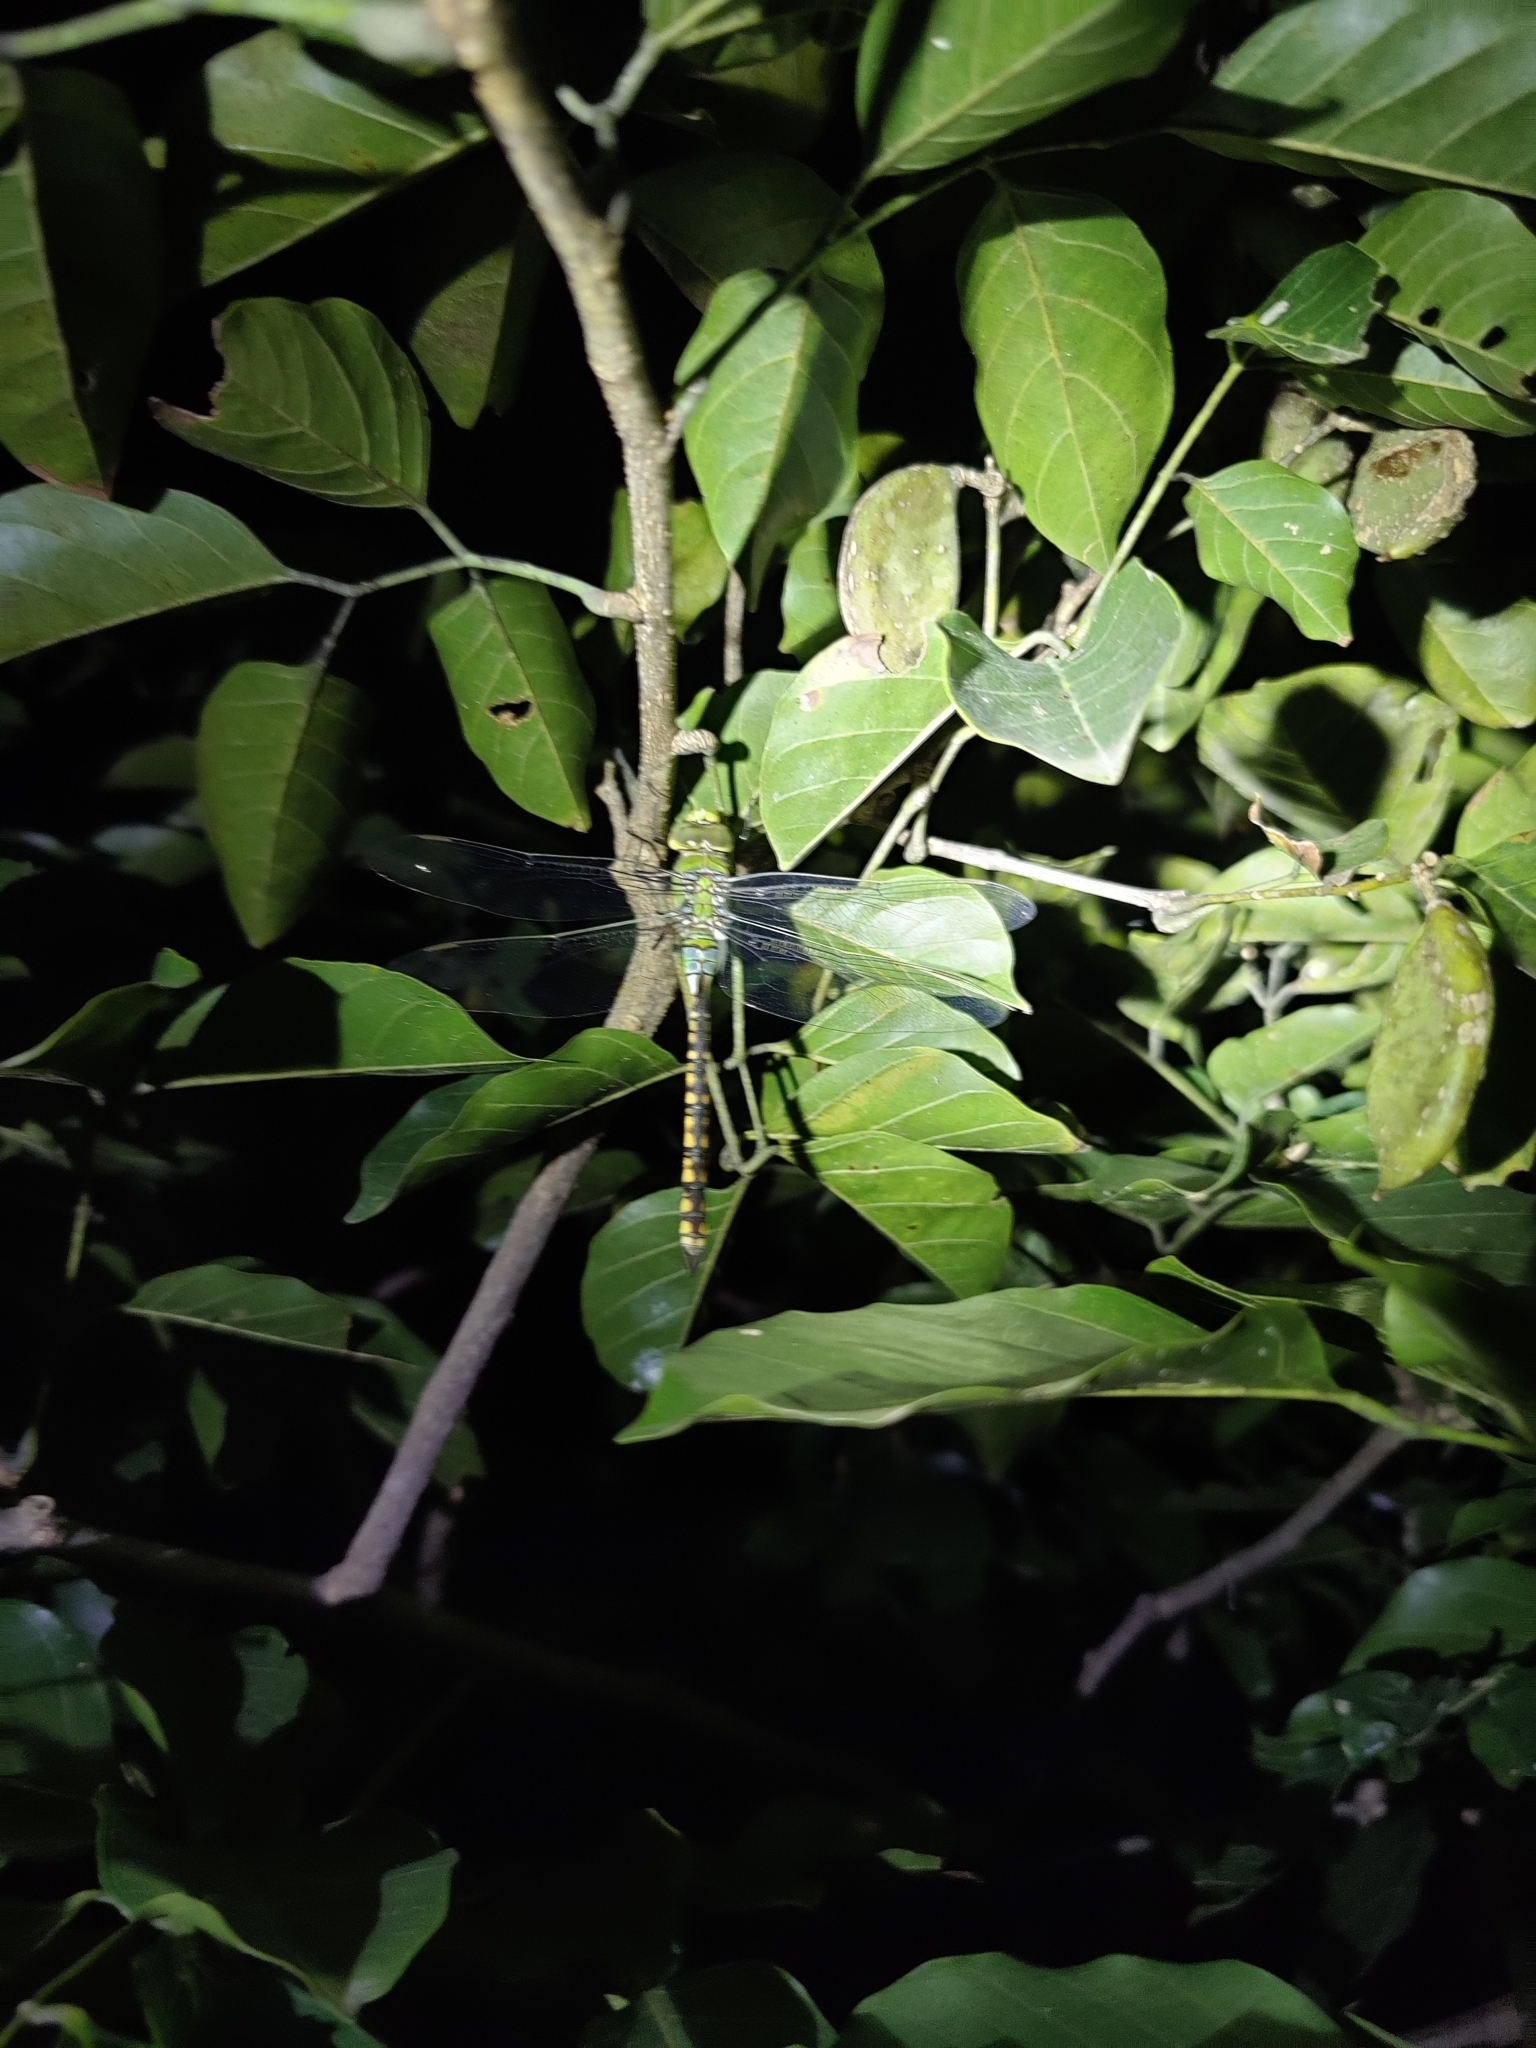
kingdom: Animalia
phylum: Arthropoda
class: Insecta
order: Odonata
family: Aeshnidae
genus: Anax
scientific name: Anax indicus
